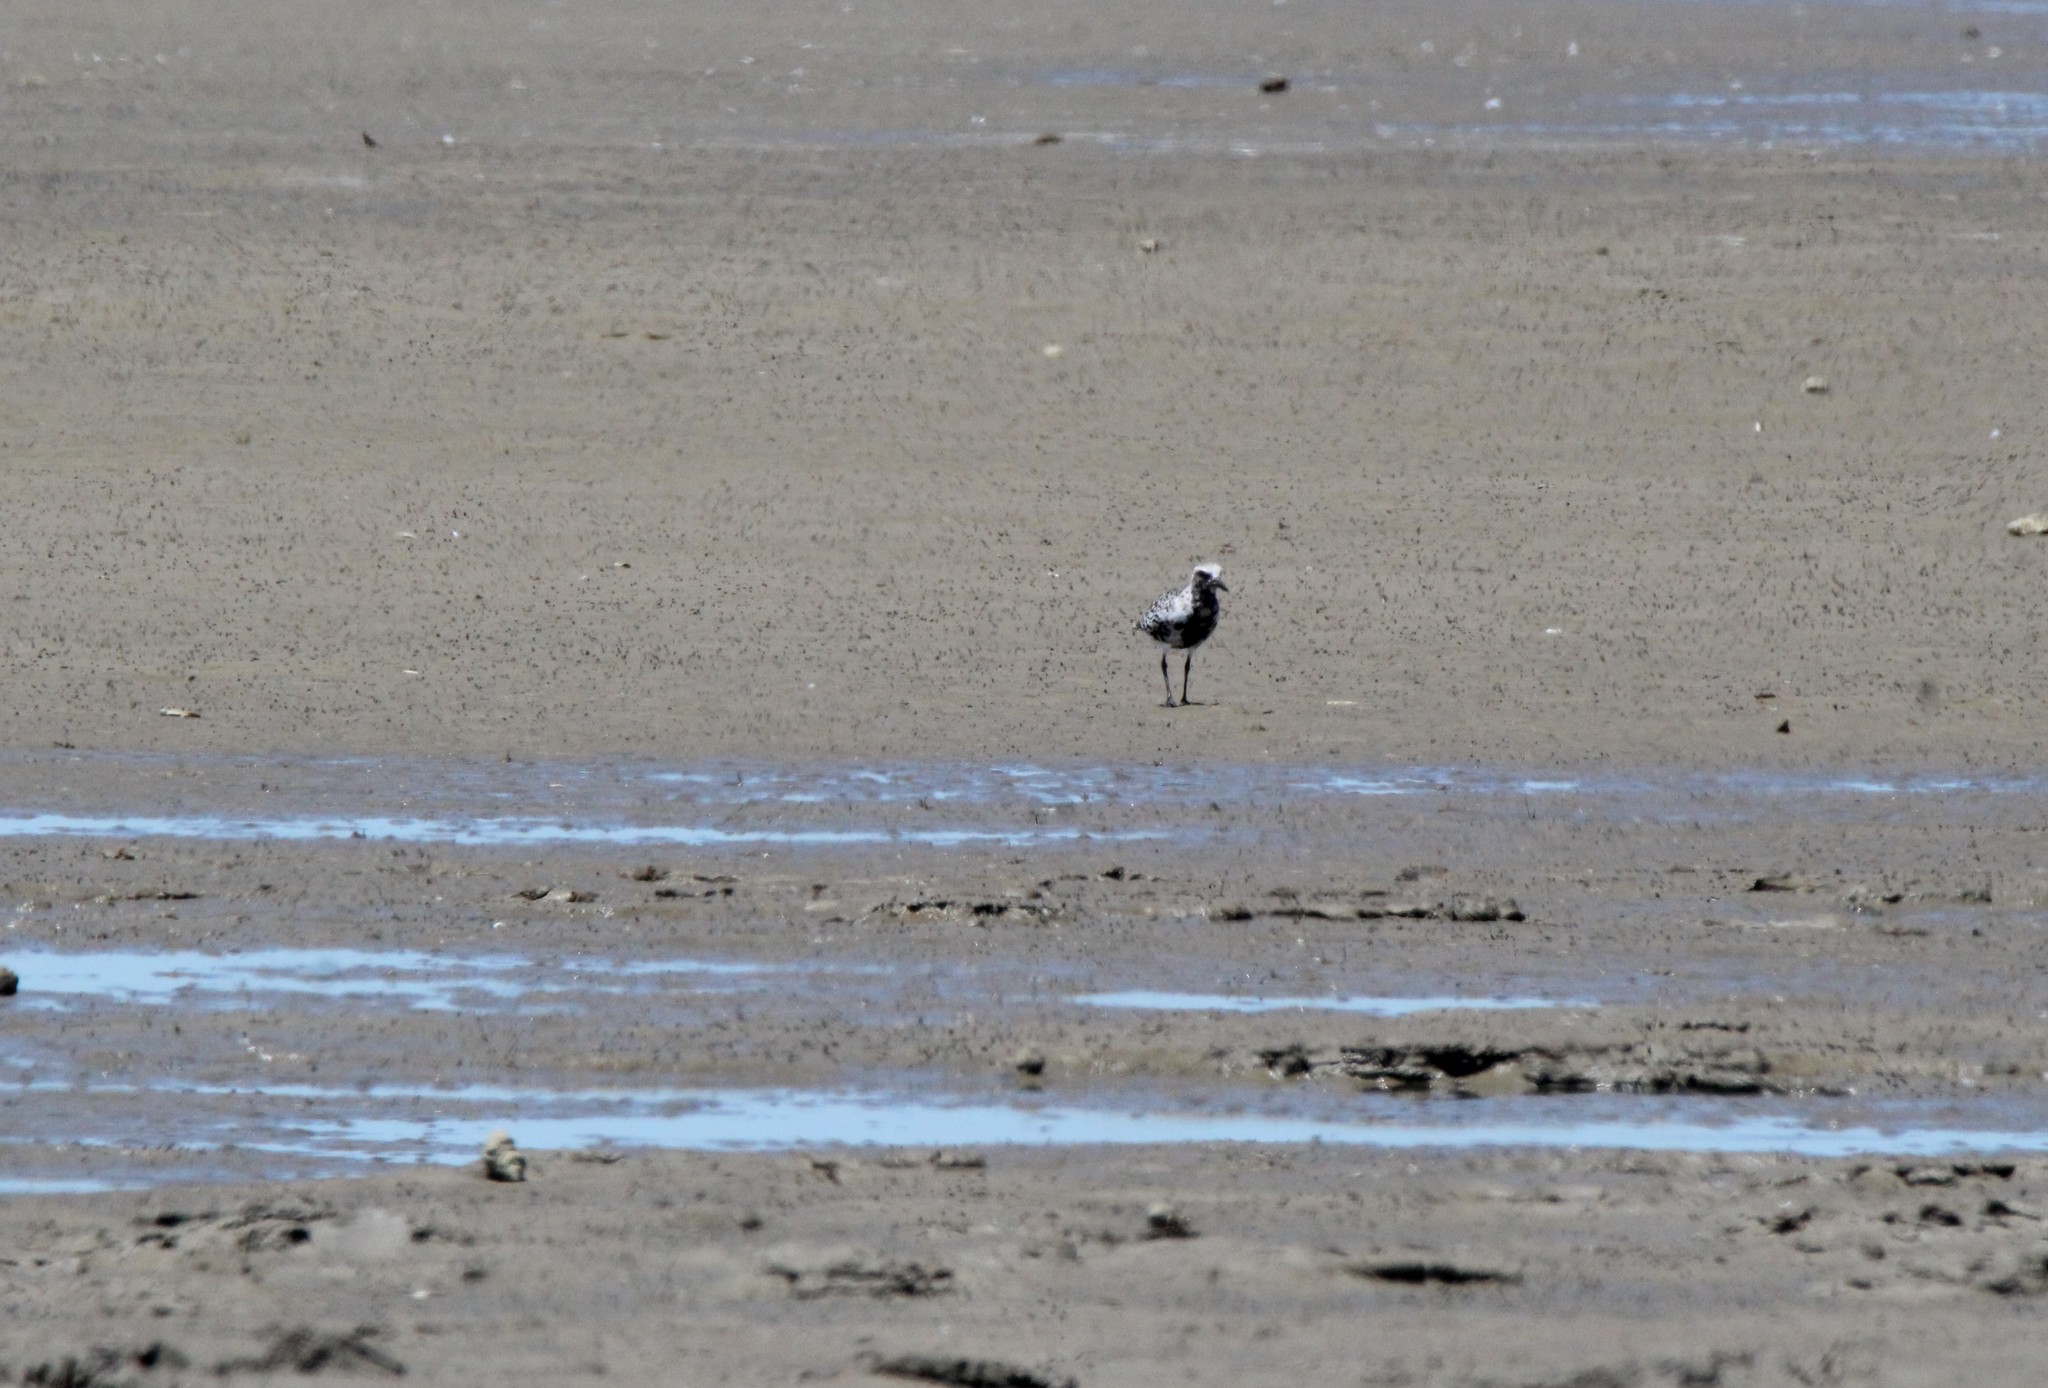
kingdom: Animalia
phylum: Chordata
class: Aves
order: Charadriiformes
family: Charadriidae
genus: Pluvialis
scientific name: Pluvialis squatarola
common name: Grey plover
